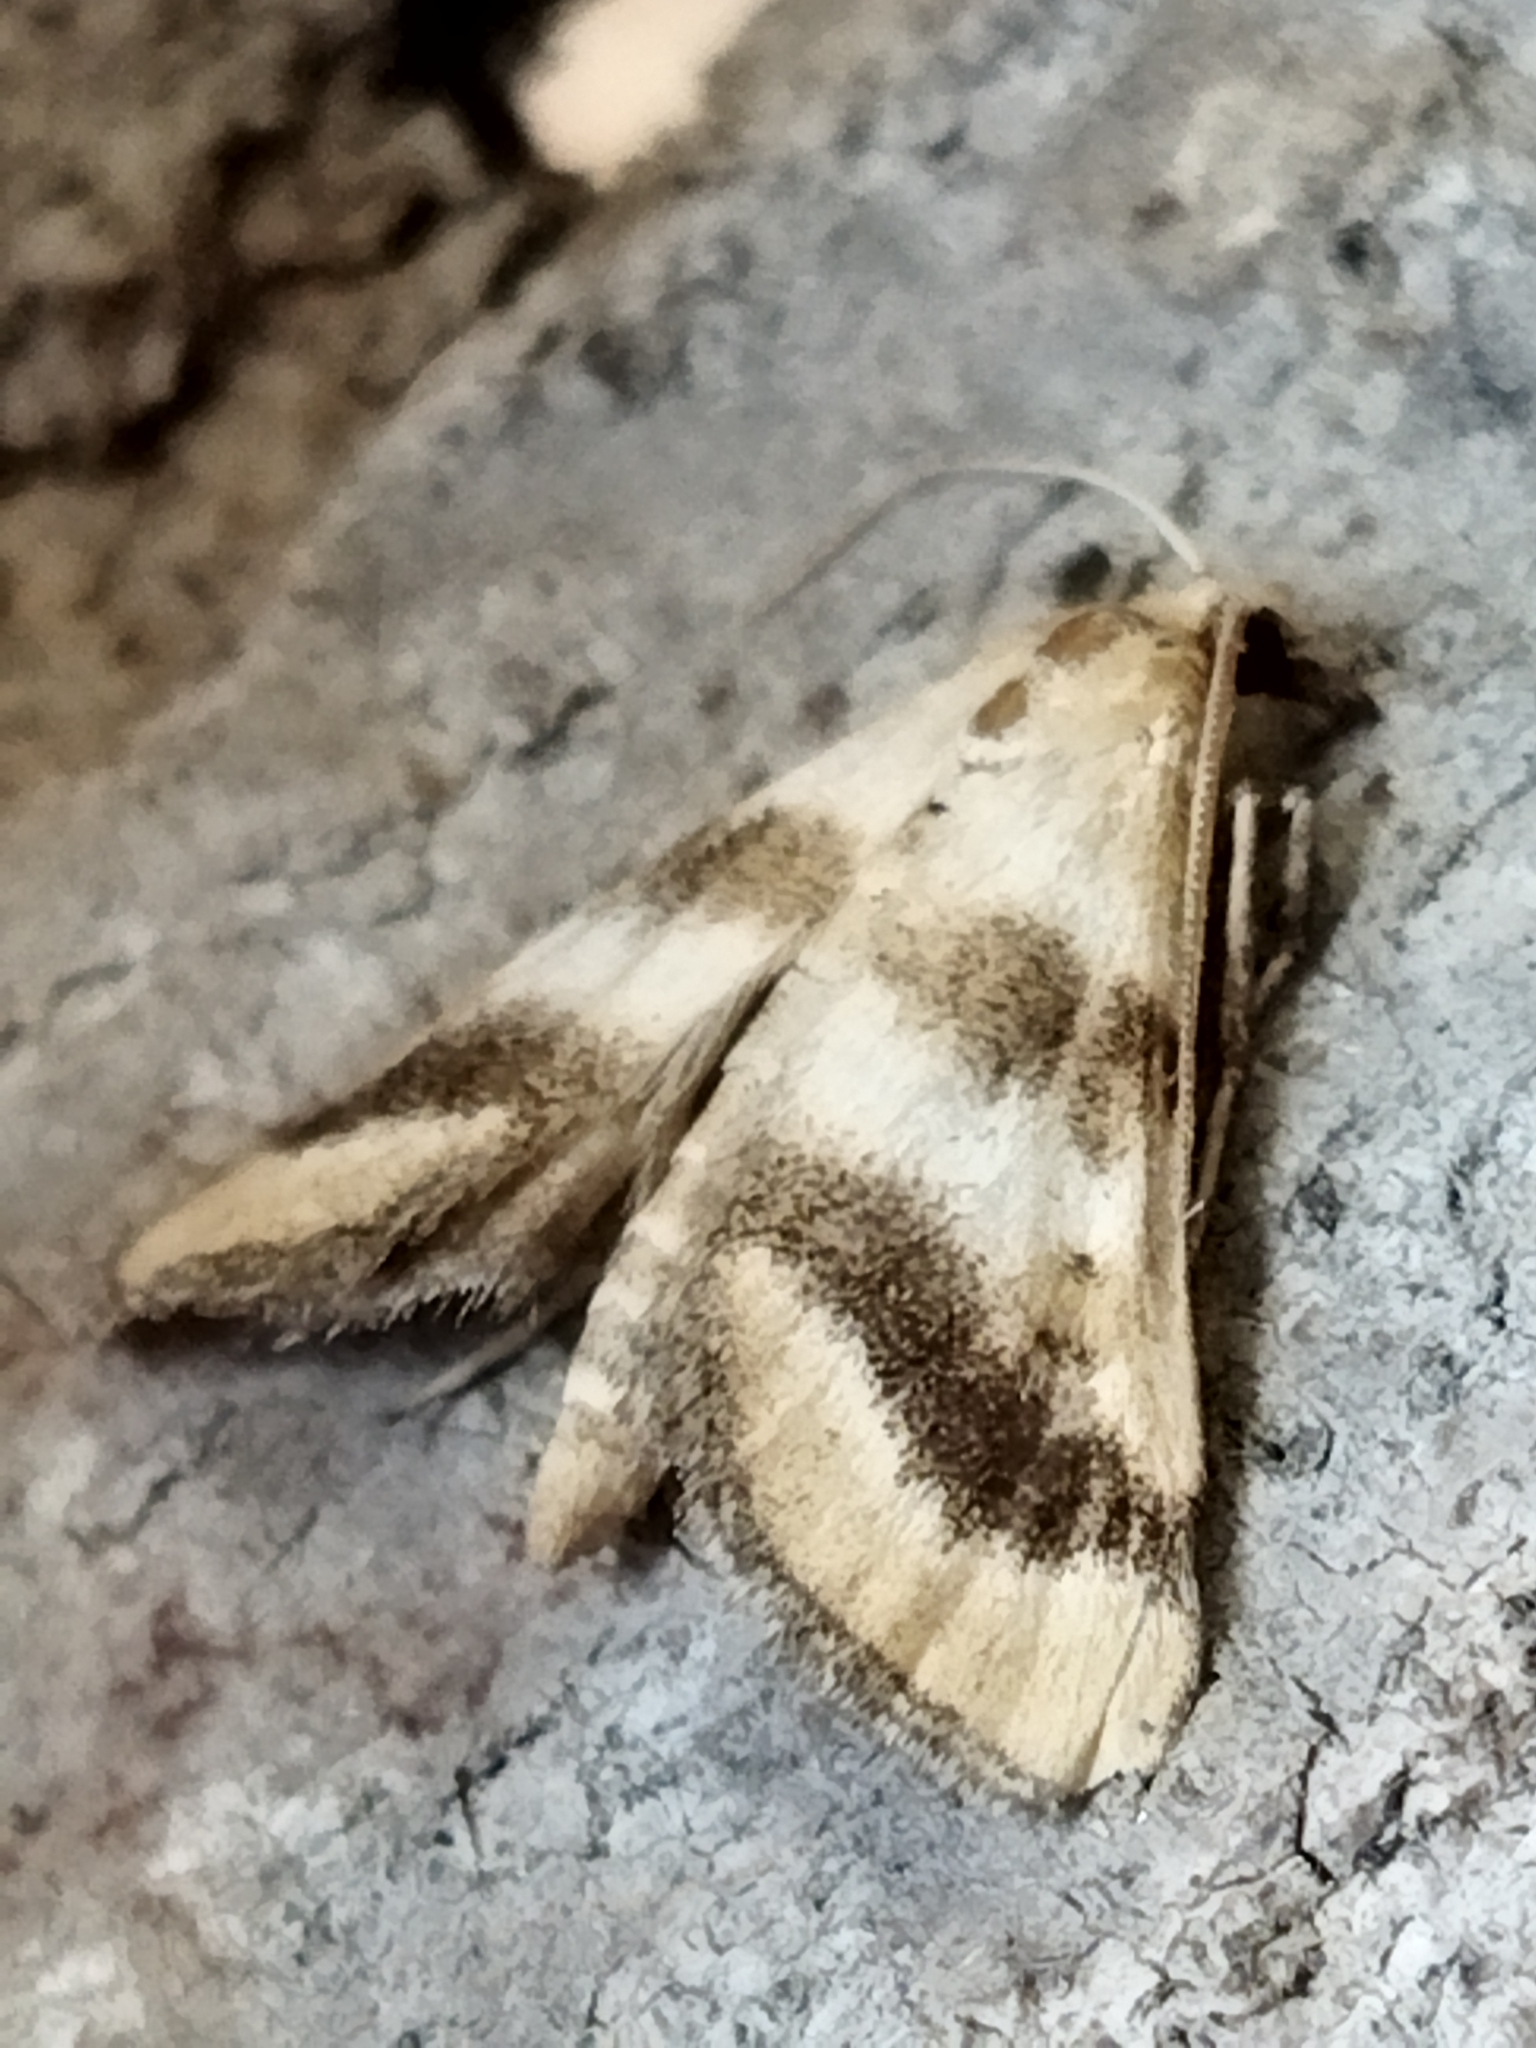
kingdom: Animalia
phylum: Arthropoda
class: Insecta
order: Lepidoptera
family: Crambidae
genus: Metasia
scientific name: Metasia suppandalis
